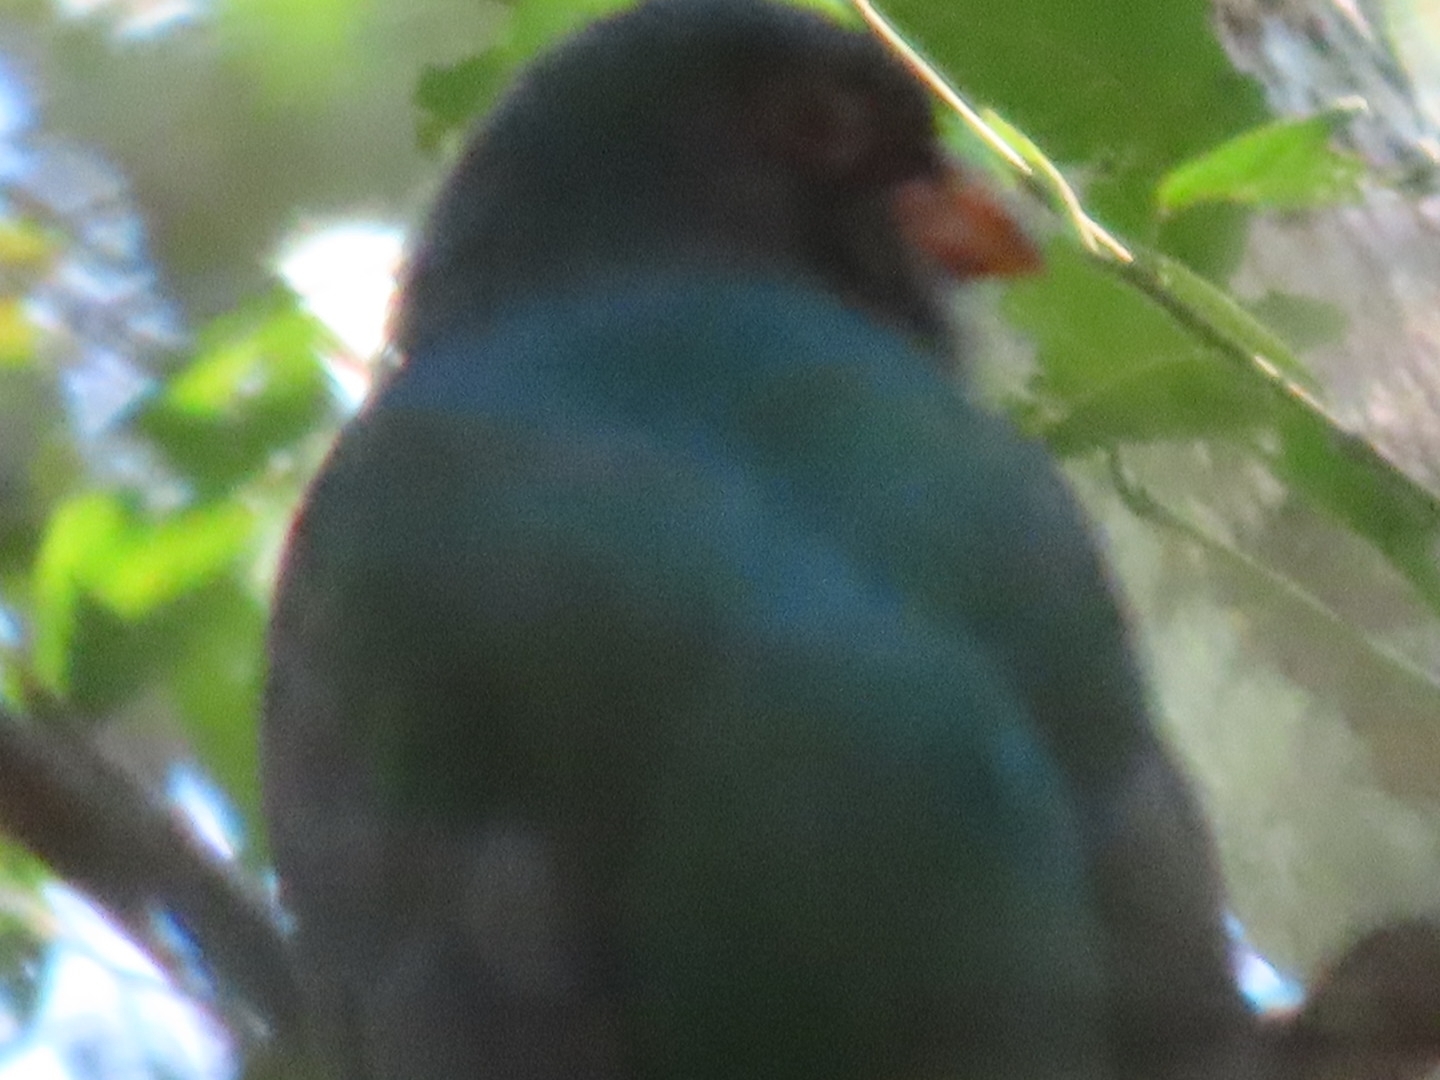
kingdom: Animalia
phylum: Chordata
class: Aves
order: Trogoniformes
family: Trogonidae
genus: Trogon
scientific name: Trogon massena
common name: Slaty-tailed trogon
